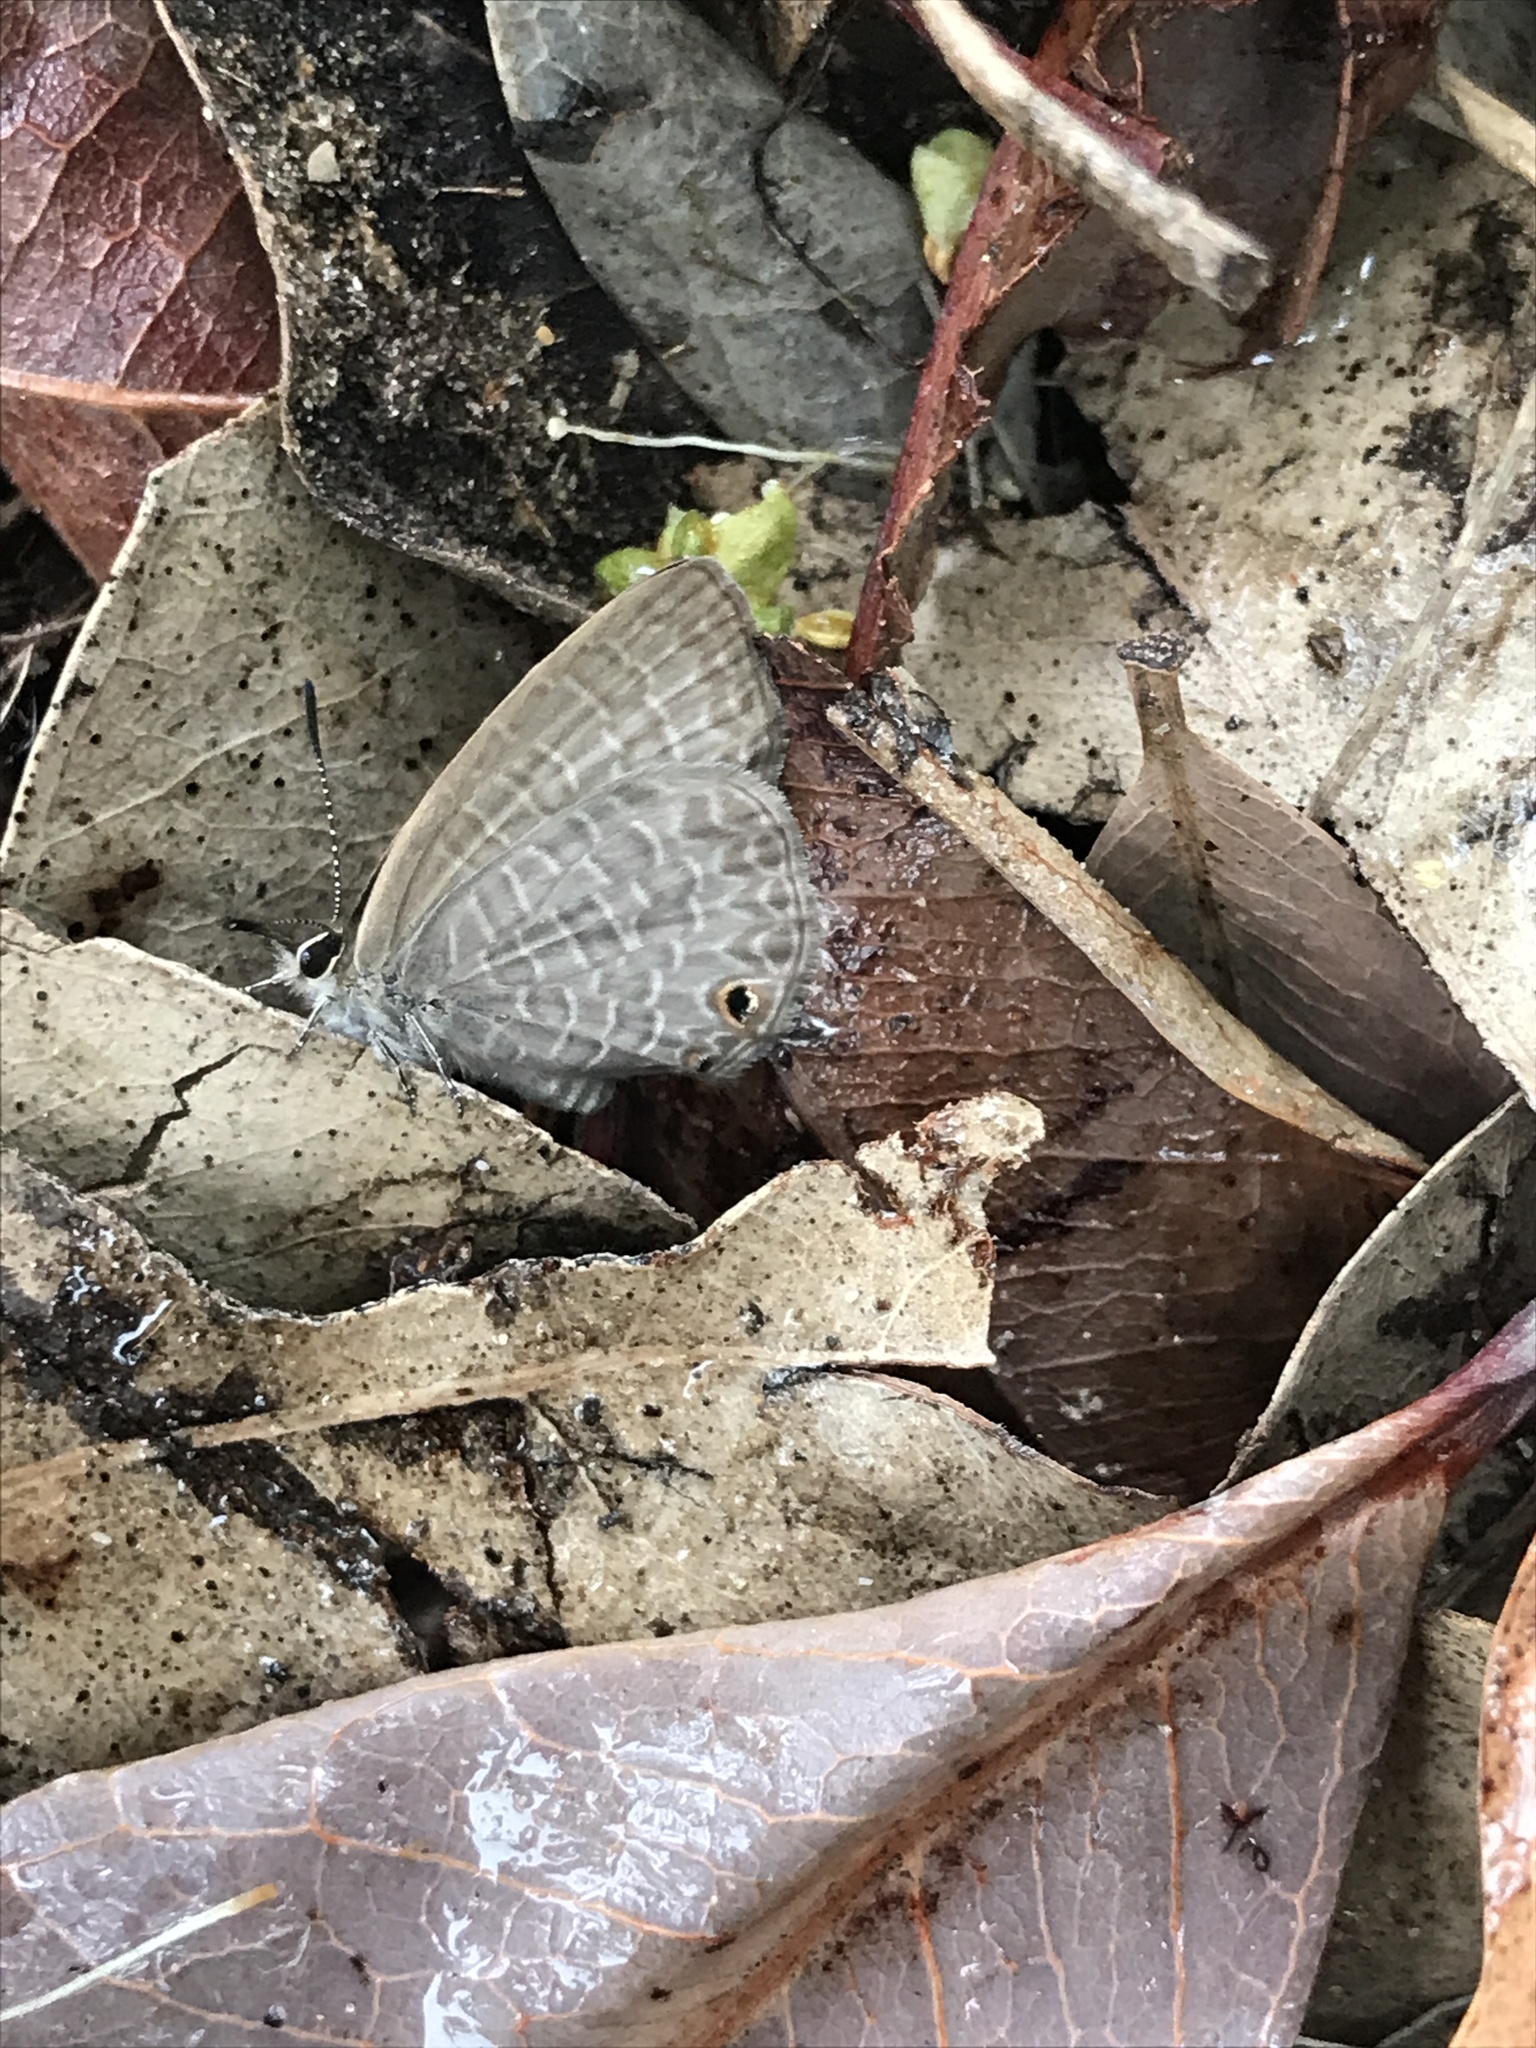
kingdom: Animalia
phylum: Arthropoda
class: Insecta
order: Lepidoptera
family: Lycaenidae
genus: Nacaduba
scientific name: Nacaduba berenice
